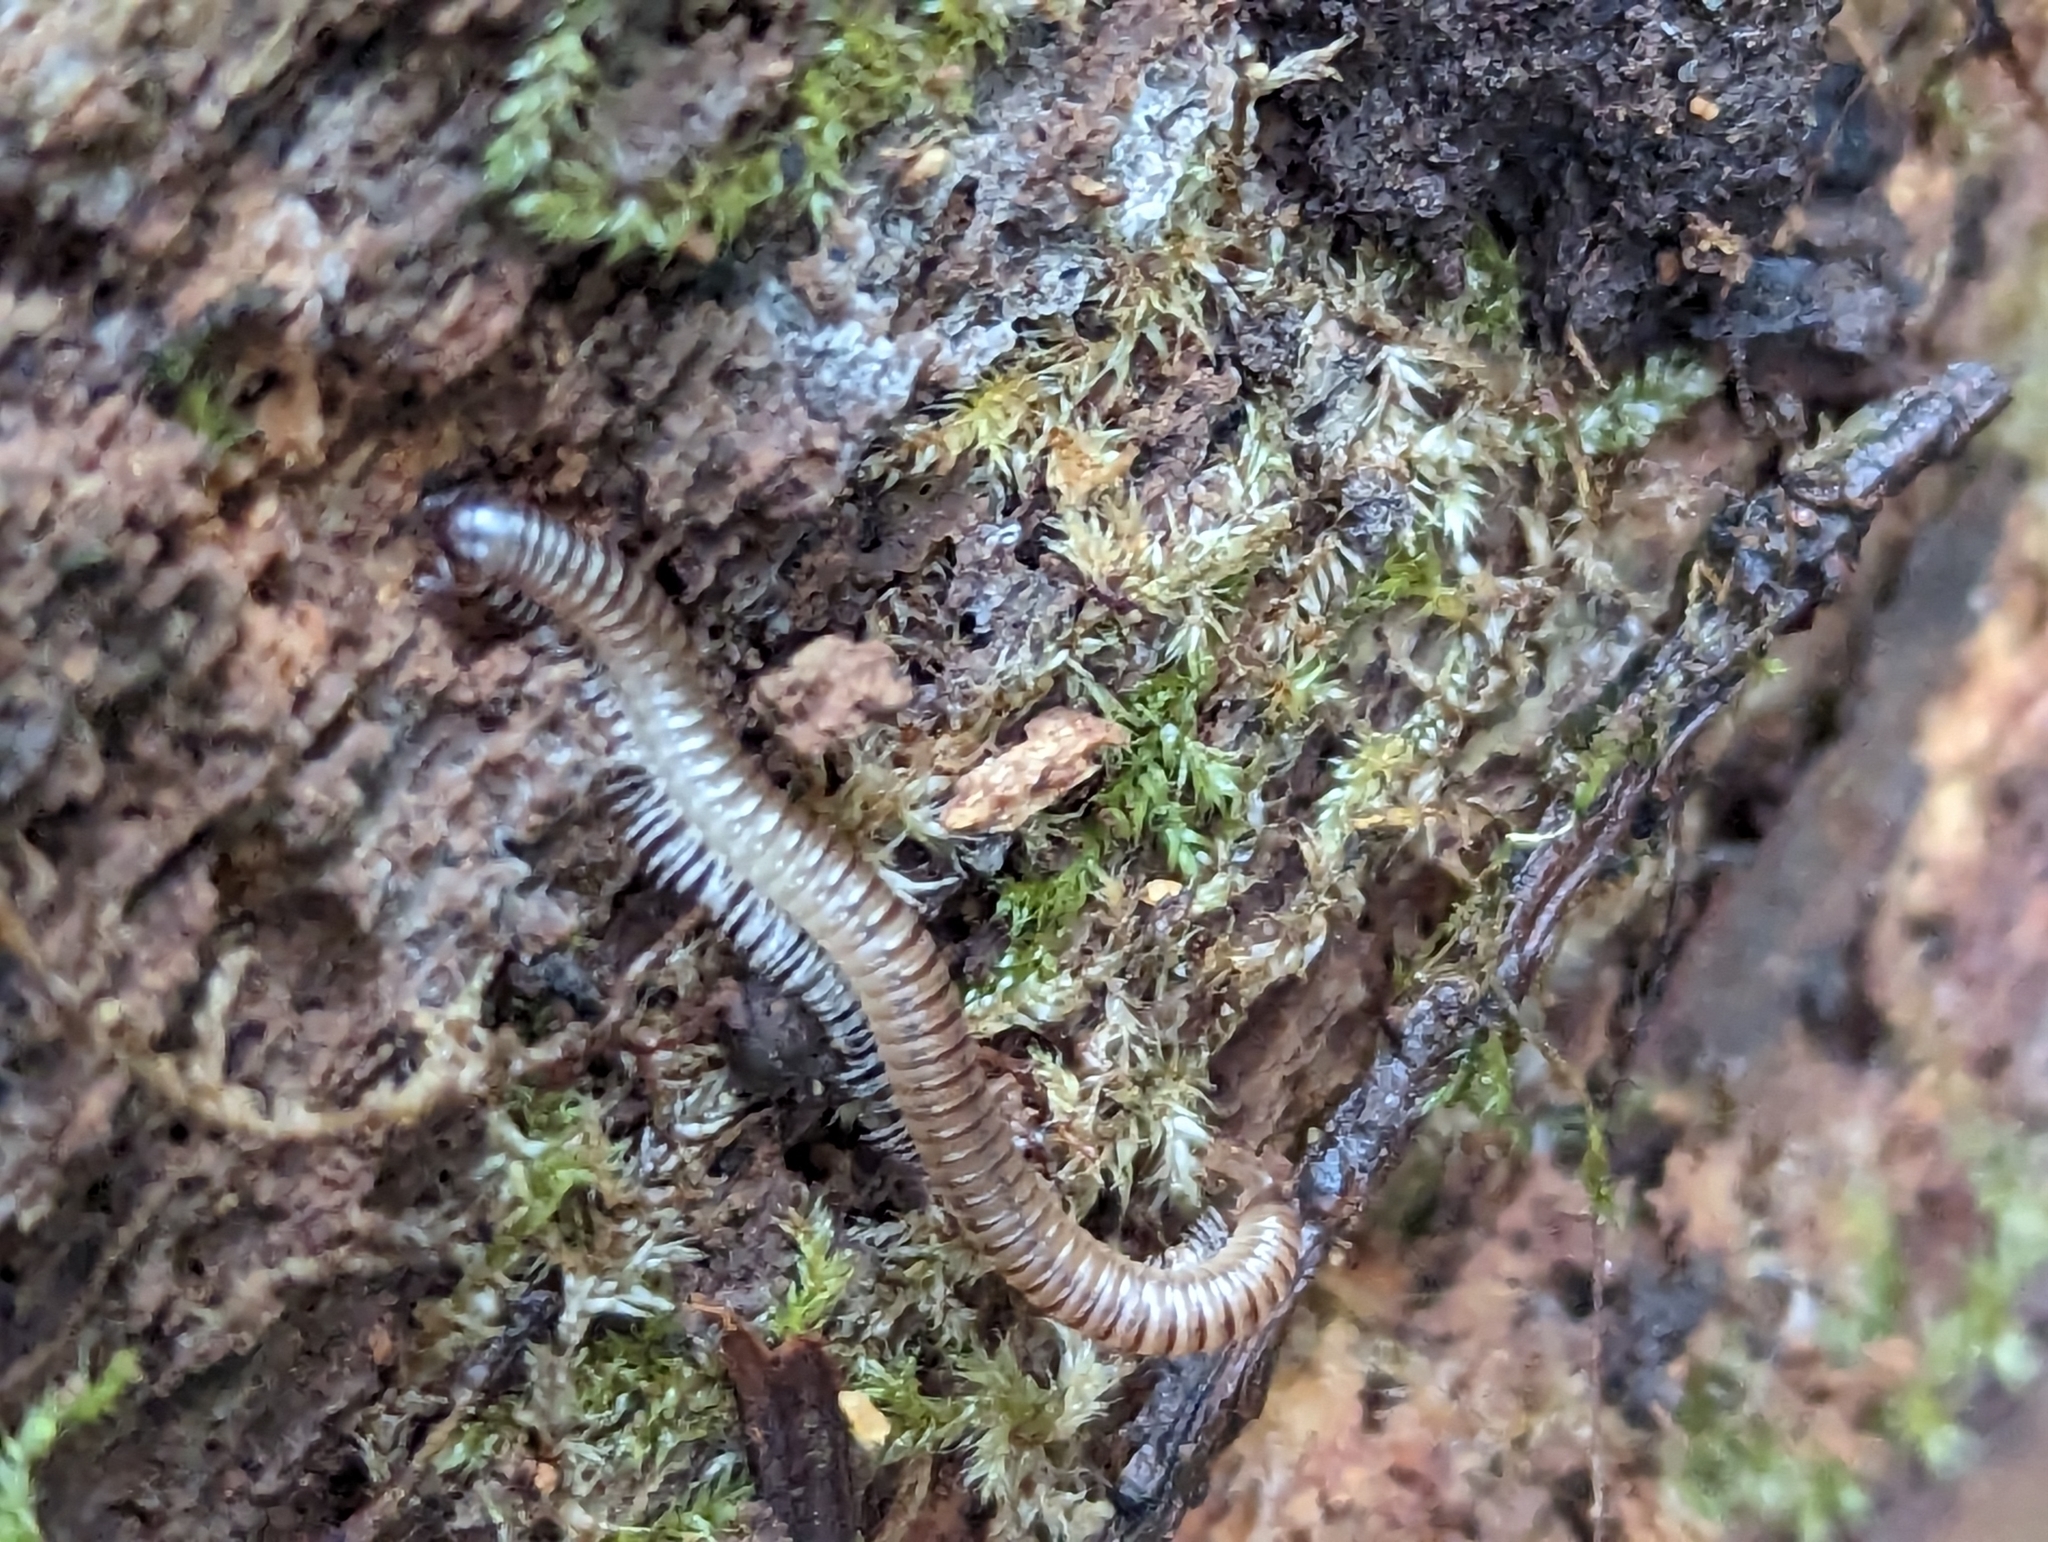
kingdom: Animalia
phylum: Arthropoda
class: Diplopoda
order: Julida
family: Julidae
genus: Cylindroiulus
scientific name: Cylindroiulus punctatus
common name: Blunt-tailed millipede
